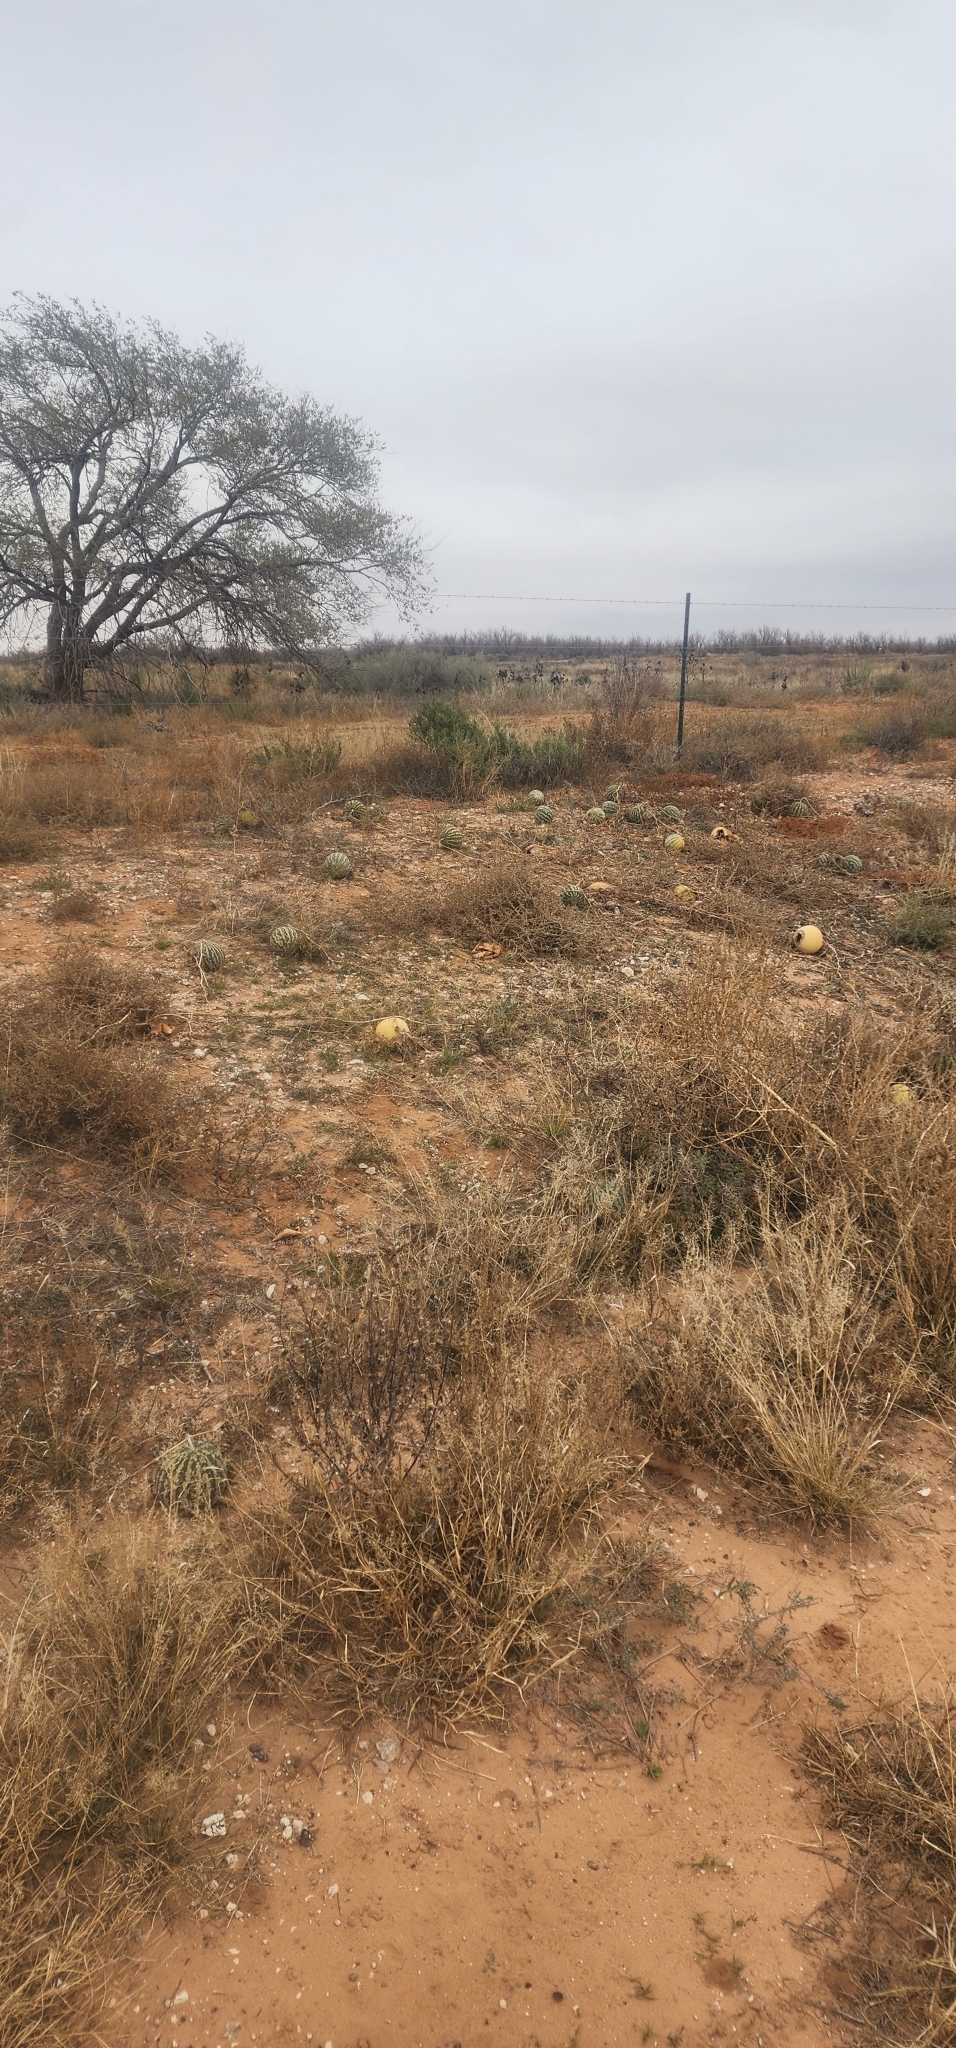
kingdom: Plantae
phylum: Tracheophyta
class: Magnoliopsida
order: Cucurbitales
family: Cucurbitaceae
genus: Citrullus
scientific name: Citrullus amarus
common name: Fodder-melon
